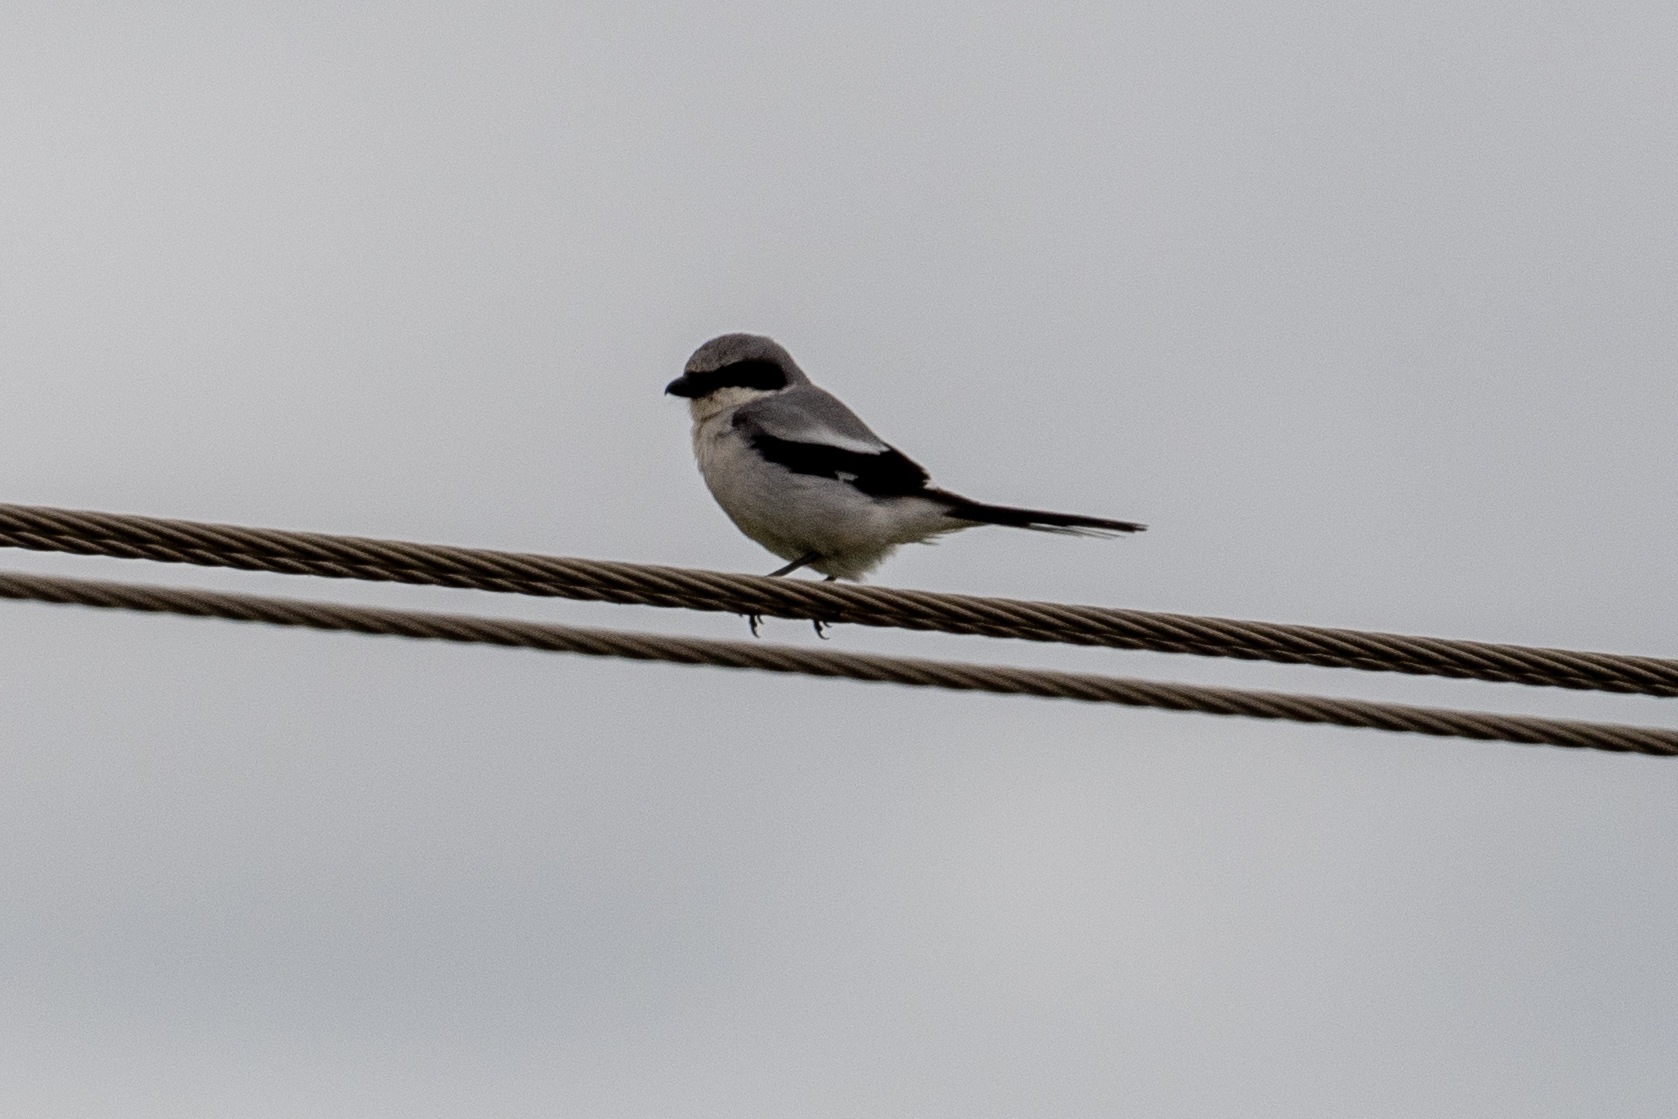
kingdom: Animalia
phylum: Chordata
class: Aves
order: Passeriformes
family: Laniidae
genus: Lanius
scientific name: Lanius ludovicianus
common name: Loggerhead shrike
